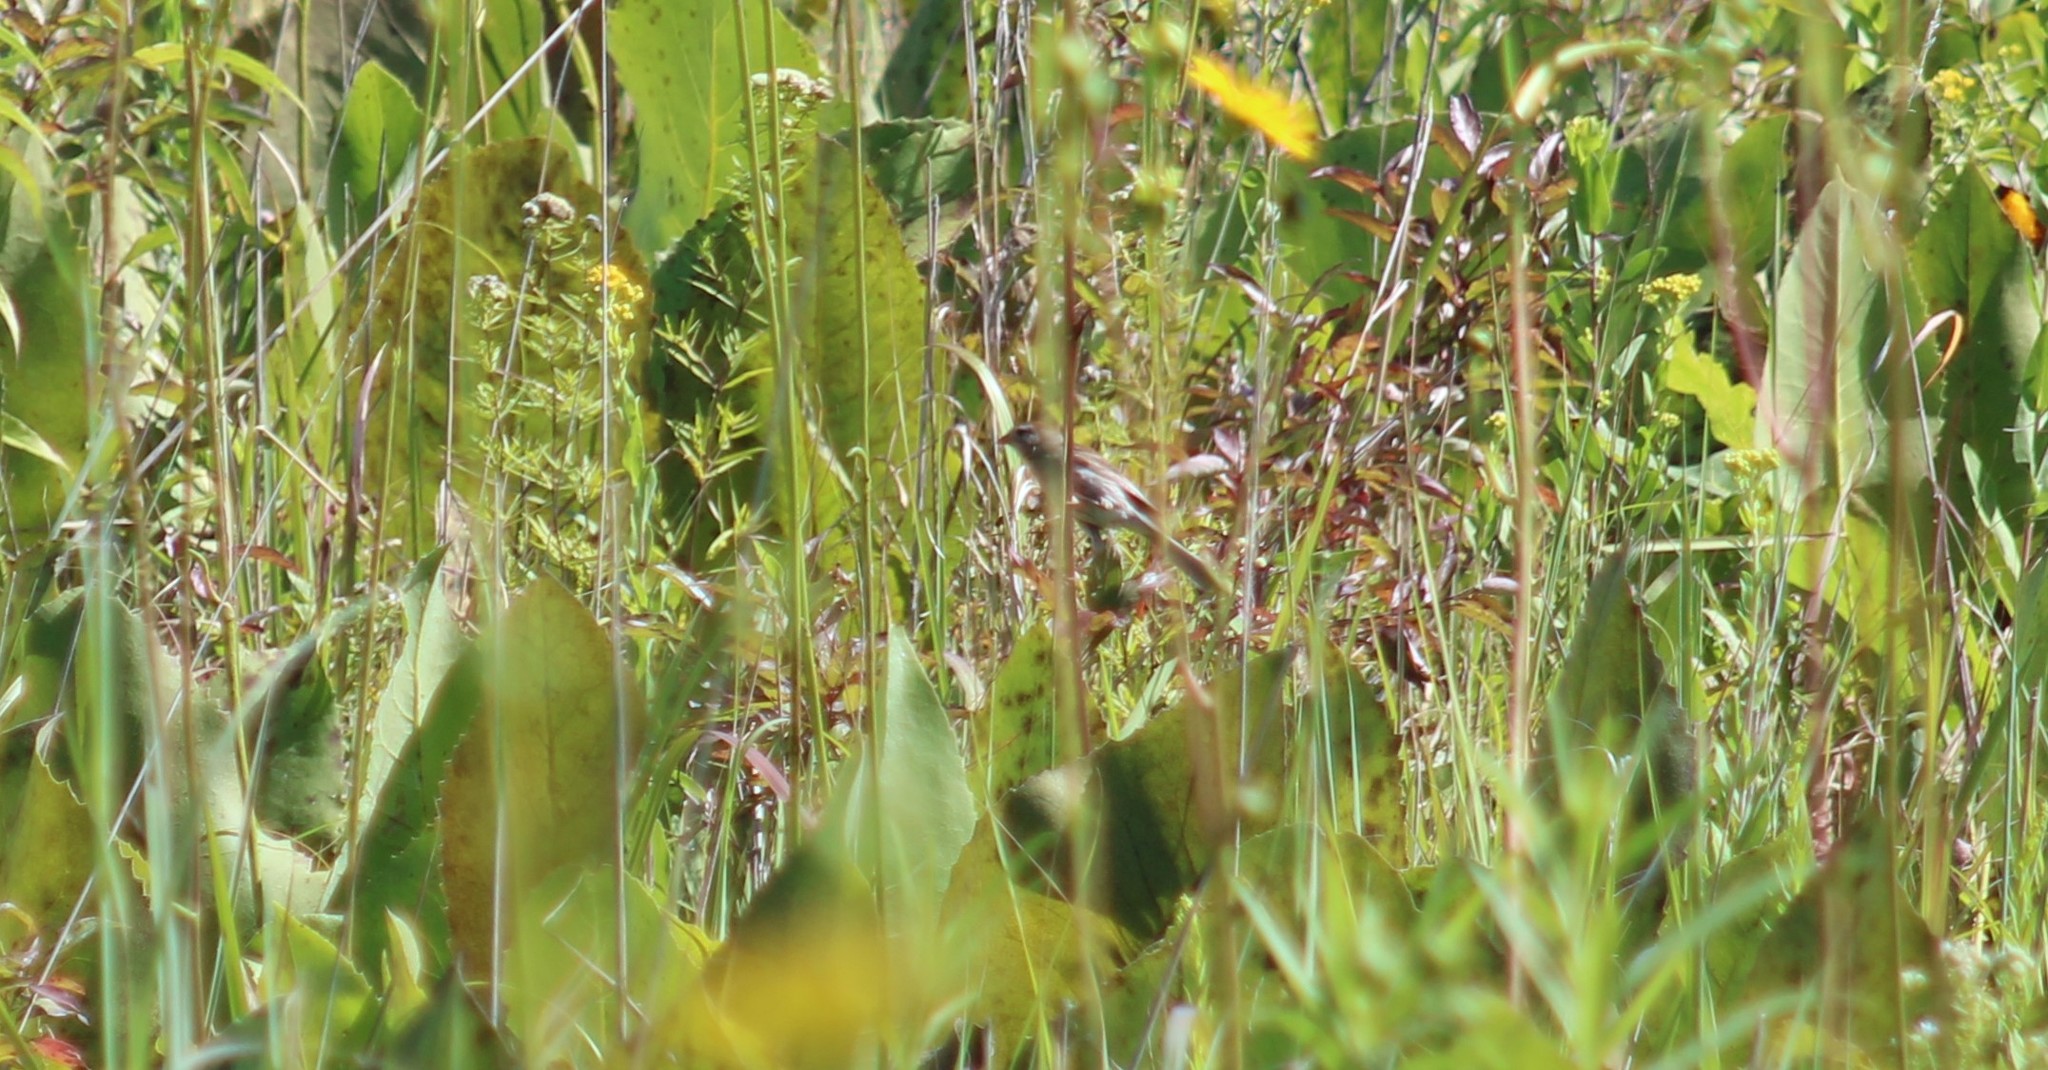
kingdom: Animalia
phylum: Chordata
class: Aves
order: Passeriformes
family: Passerellidae
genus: Spizella
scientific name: Spizella pusilla
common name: Field sparrow
